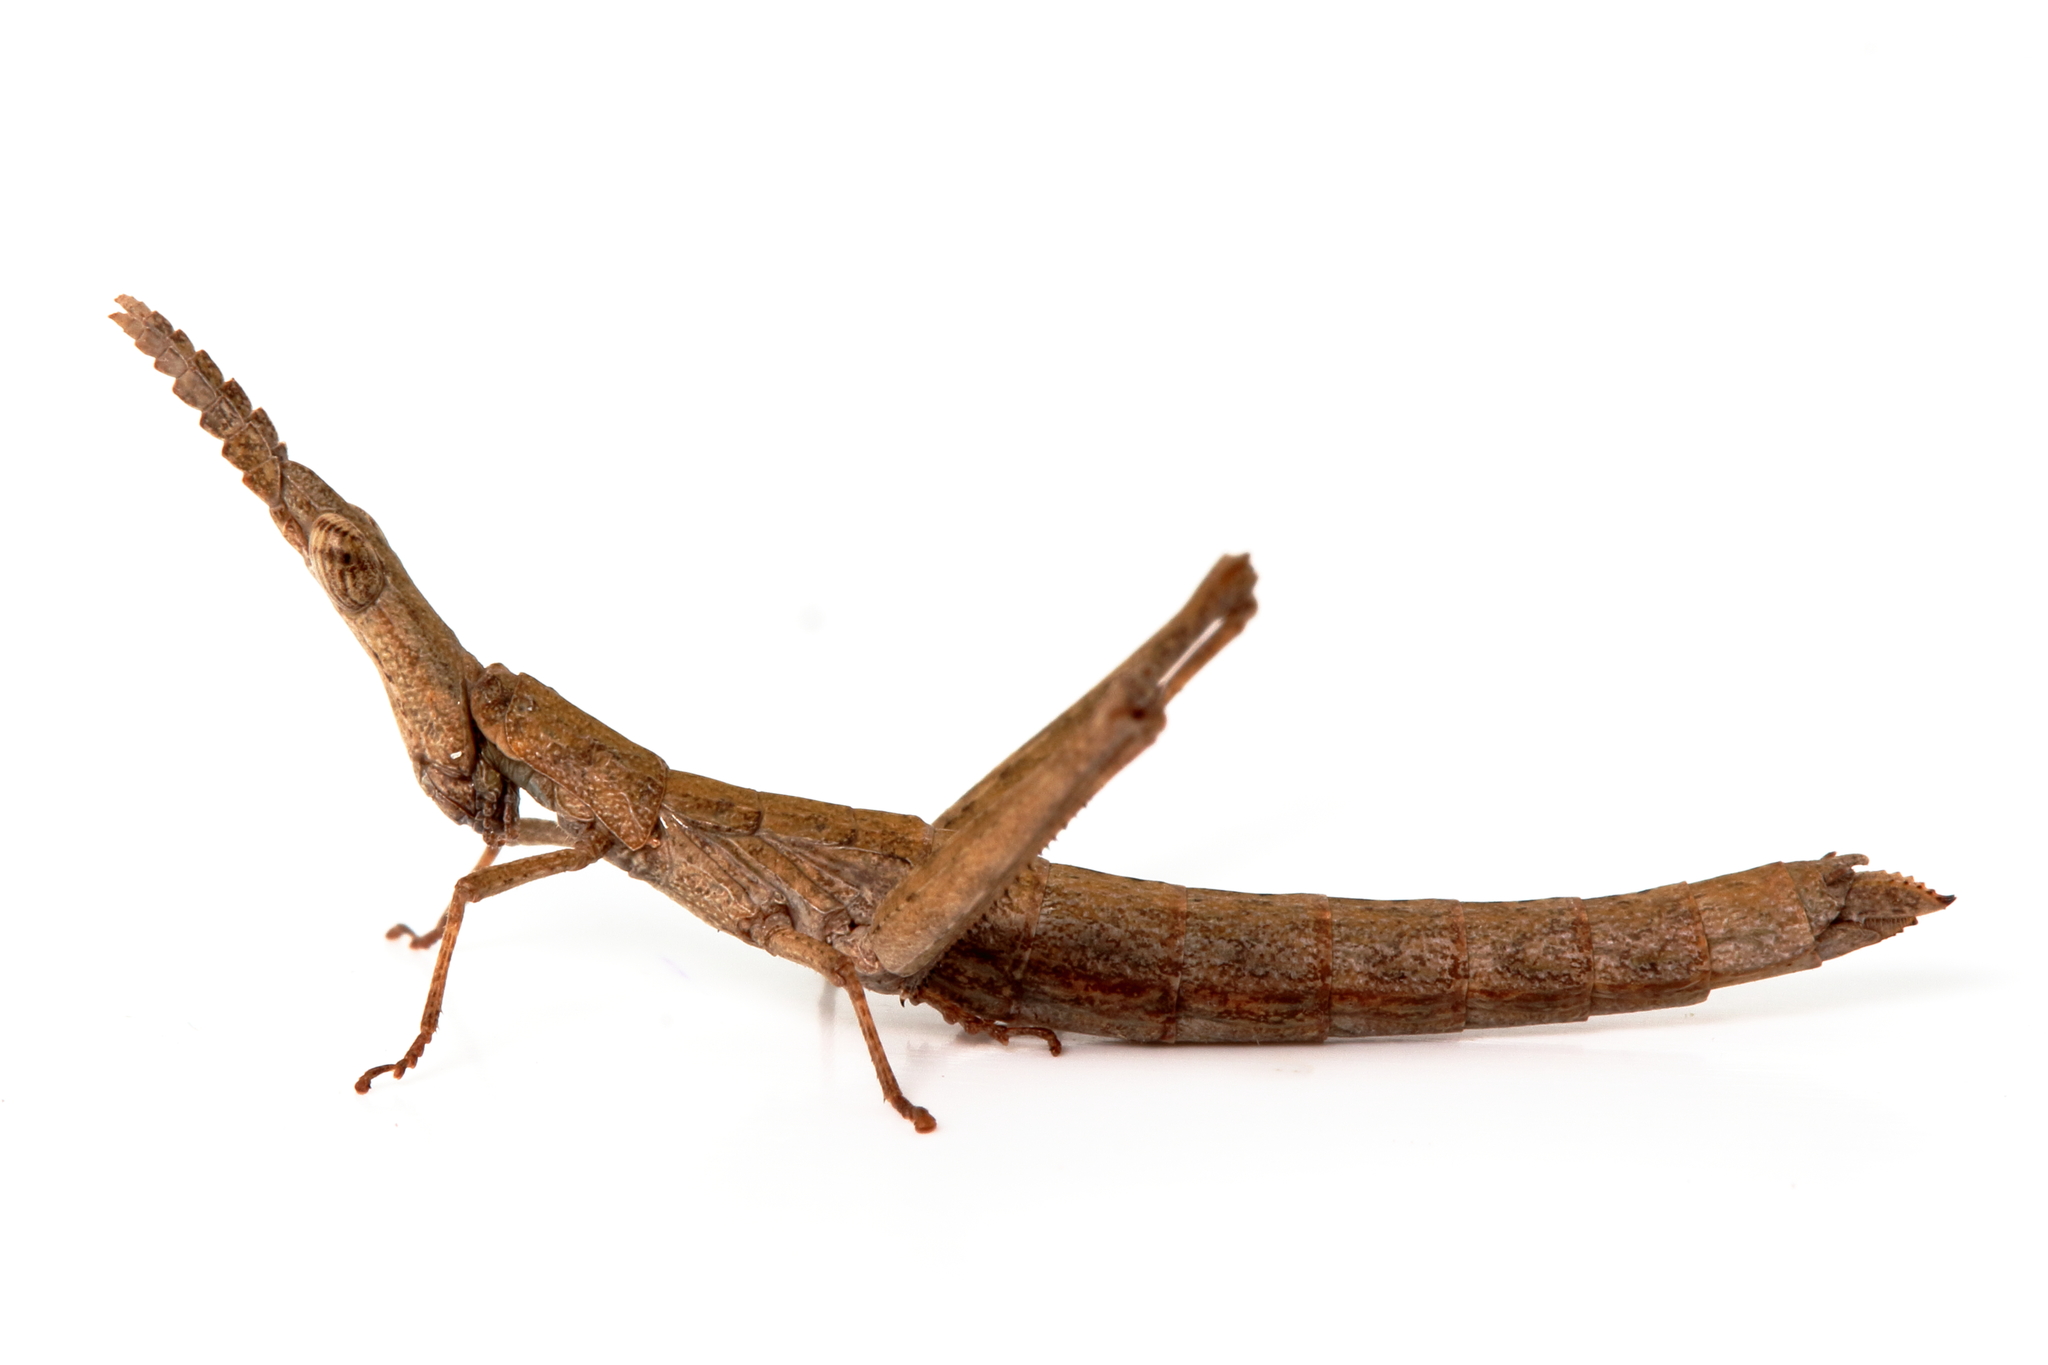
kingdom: Animalia
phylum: Arthropoda
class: Insecta
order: Orthoptera
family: Morabidae
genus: Vandiemenella
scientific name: Vandiemenella viatica
